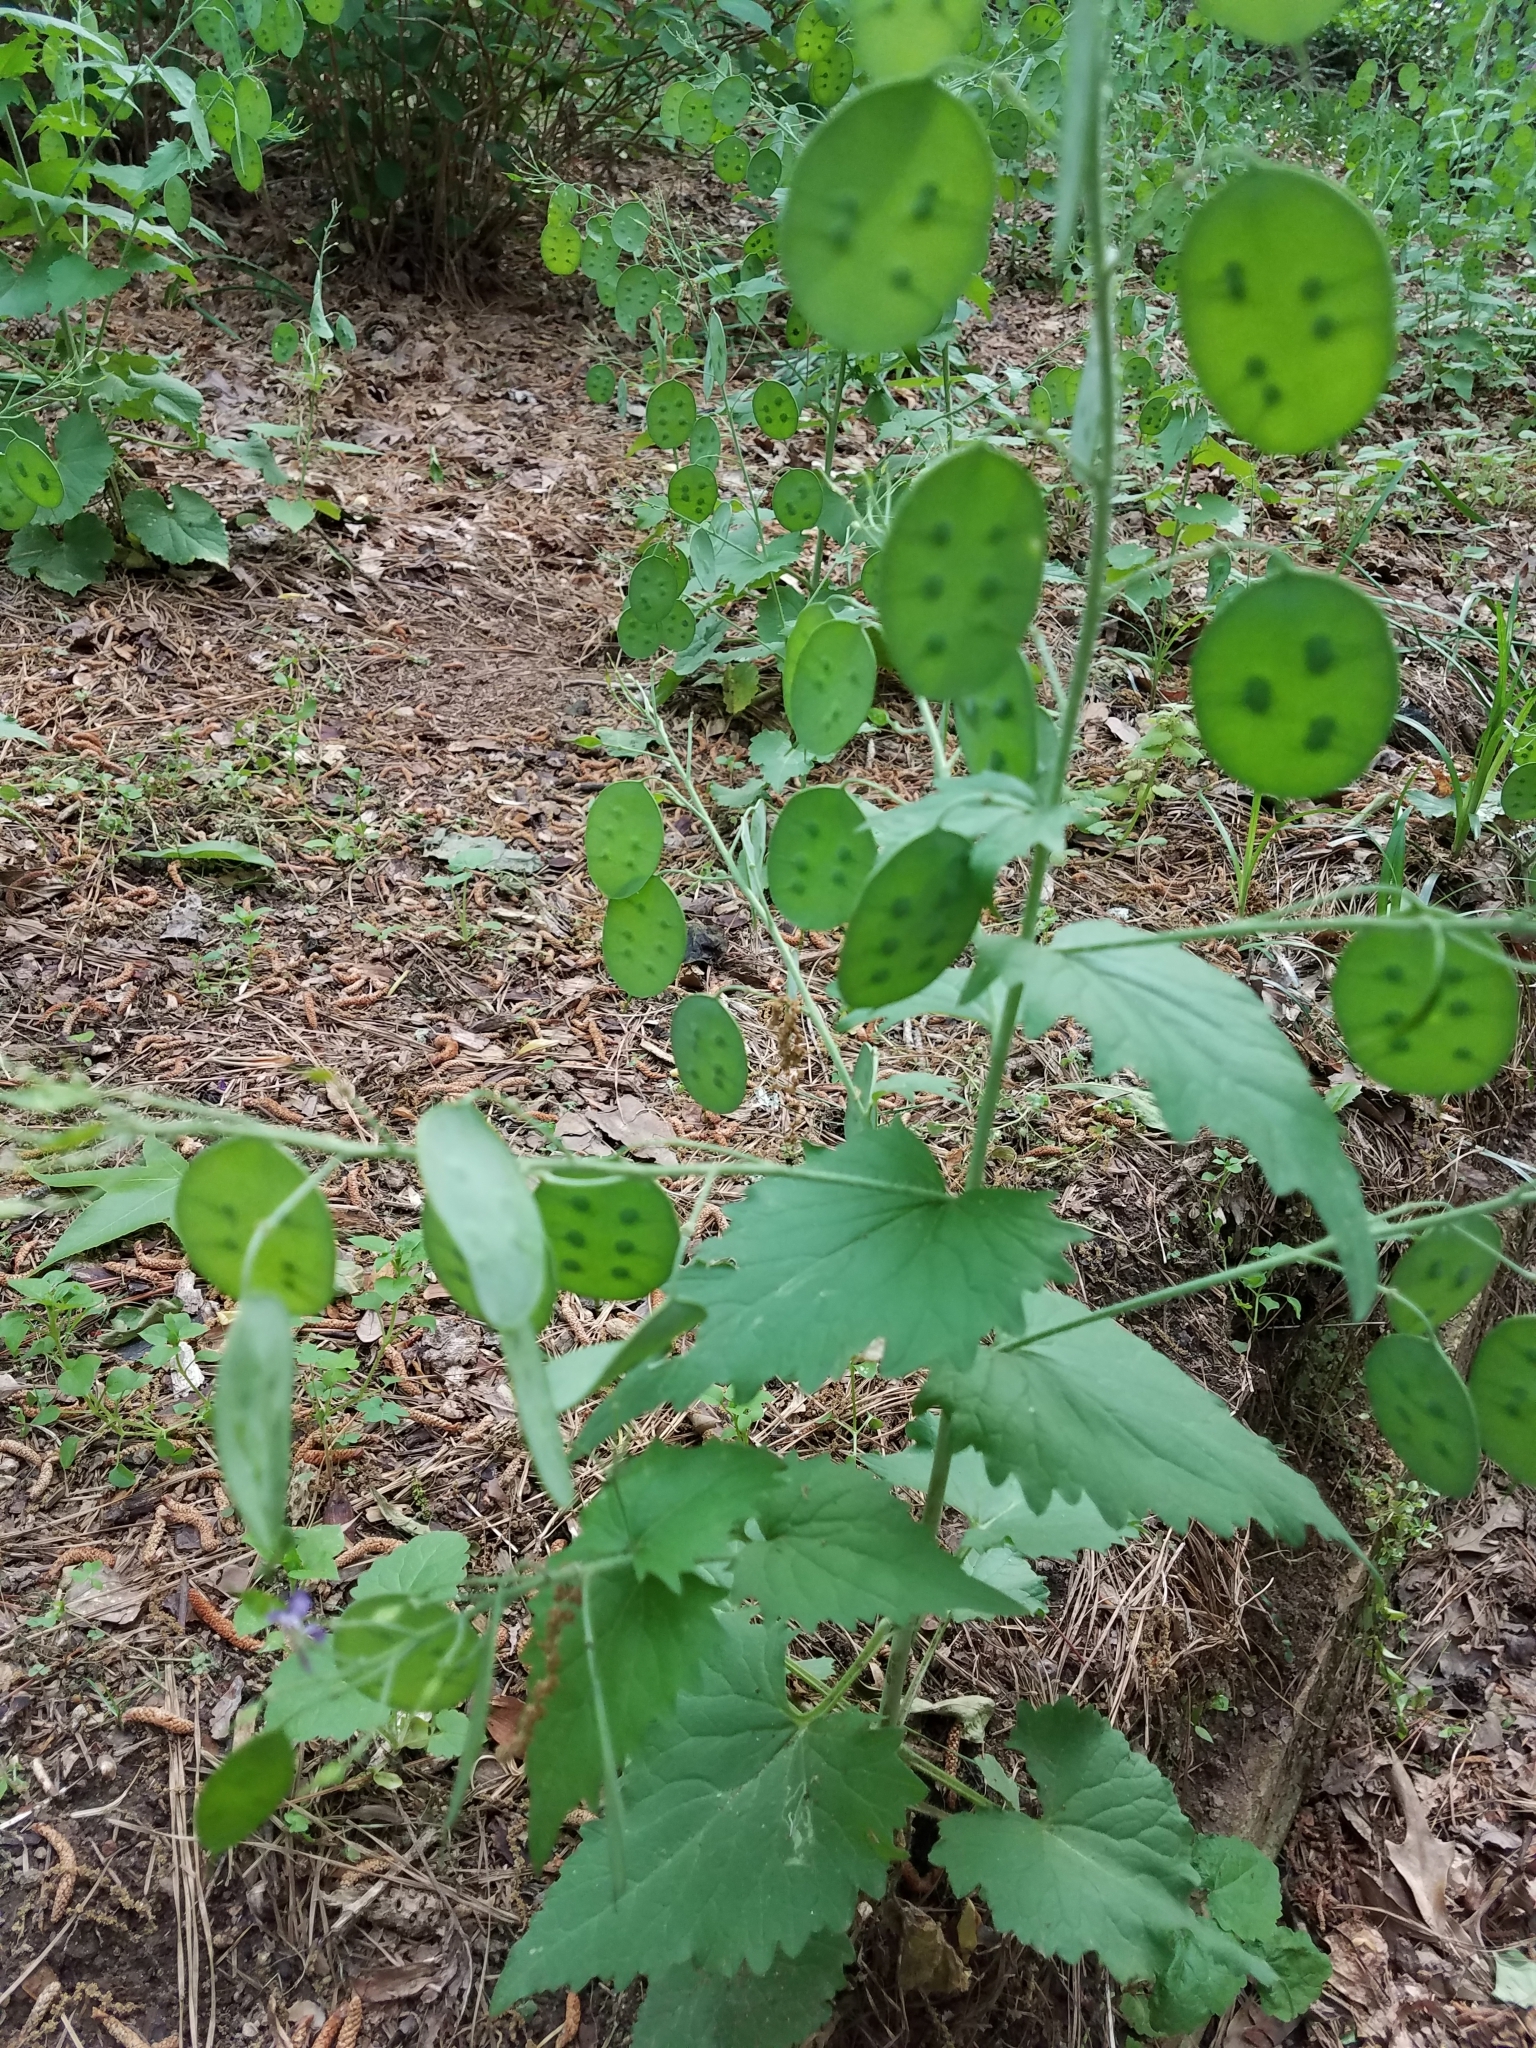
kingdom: Plantae
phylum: Tracheophyta
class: Magnoliopsida
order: Brassicales
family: Brassicaceae
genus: Lunaria
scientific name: Lunaria annua
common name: Honesty
